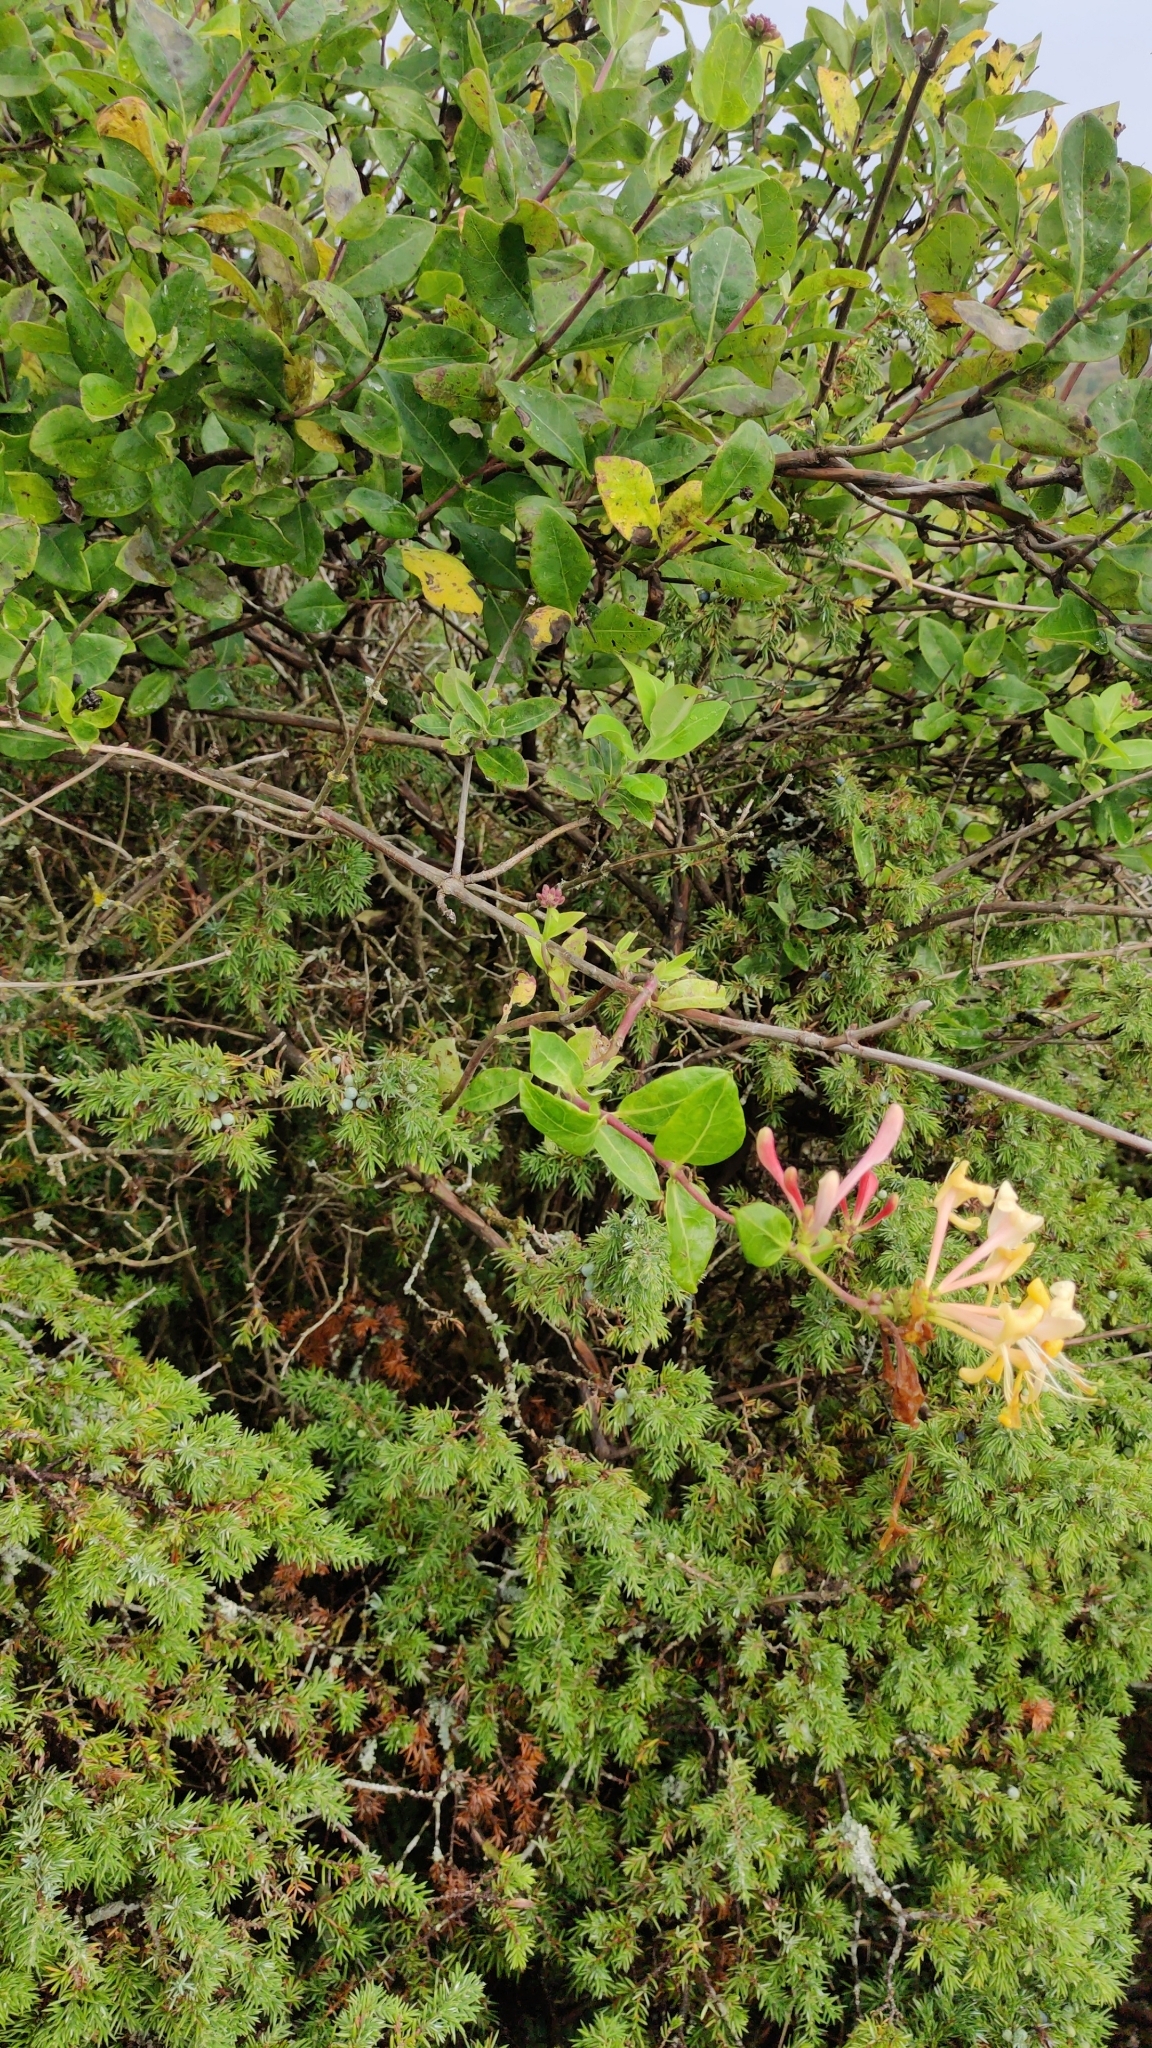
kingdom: Plantae
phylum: Tracheophyta
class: Magnoliopsida
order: Dipsacales
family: Caprifoliaceae
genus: Lonicera
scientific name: Lonicera periclymenum
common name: European honeysuckle
